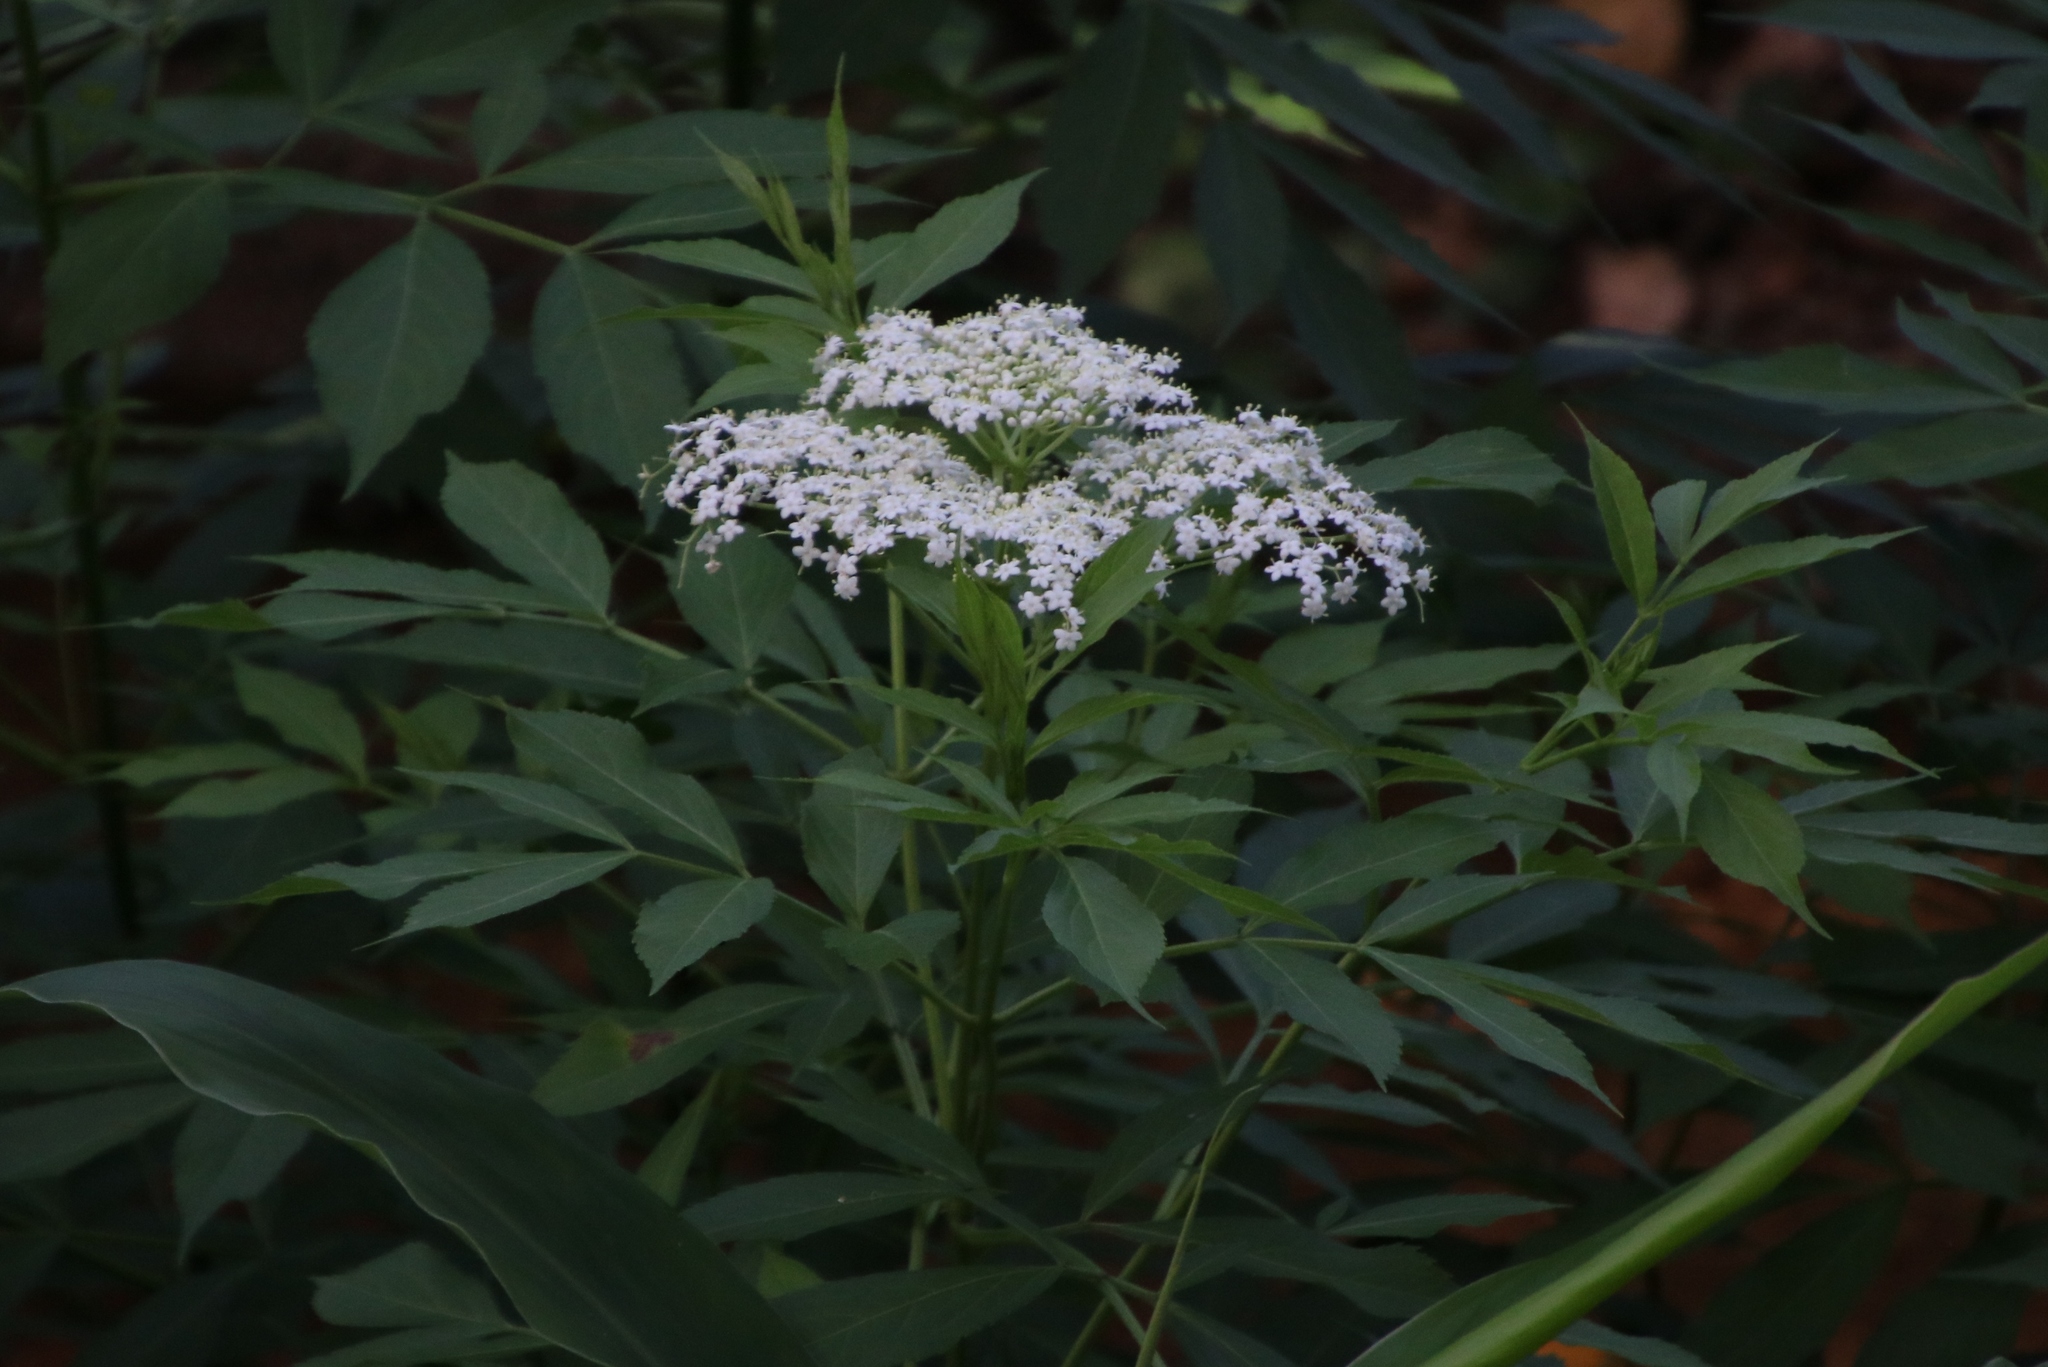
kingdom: Plantae
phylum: Tracheophyta
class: Magnoliopsida
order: Dipsacales
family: Viburnaceae
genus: Sambucus
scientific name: Sambucus canadensis
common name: American elder
